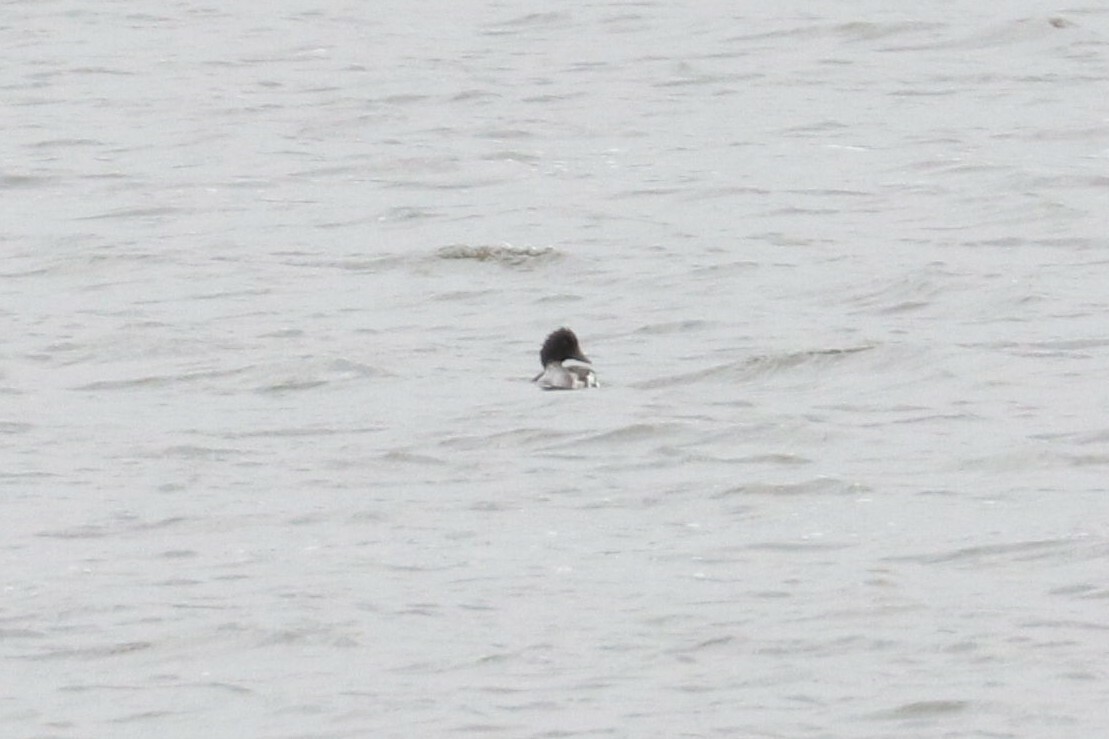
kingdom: Animalia
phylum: Chordata
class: Aves
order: Anseriformes
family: Anatidae
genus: Bucephala
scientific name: Bucephala clangula
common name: Common goldeneye
